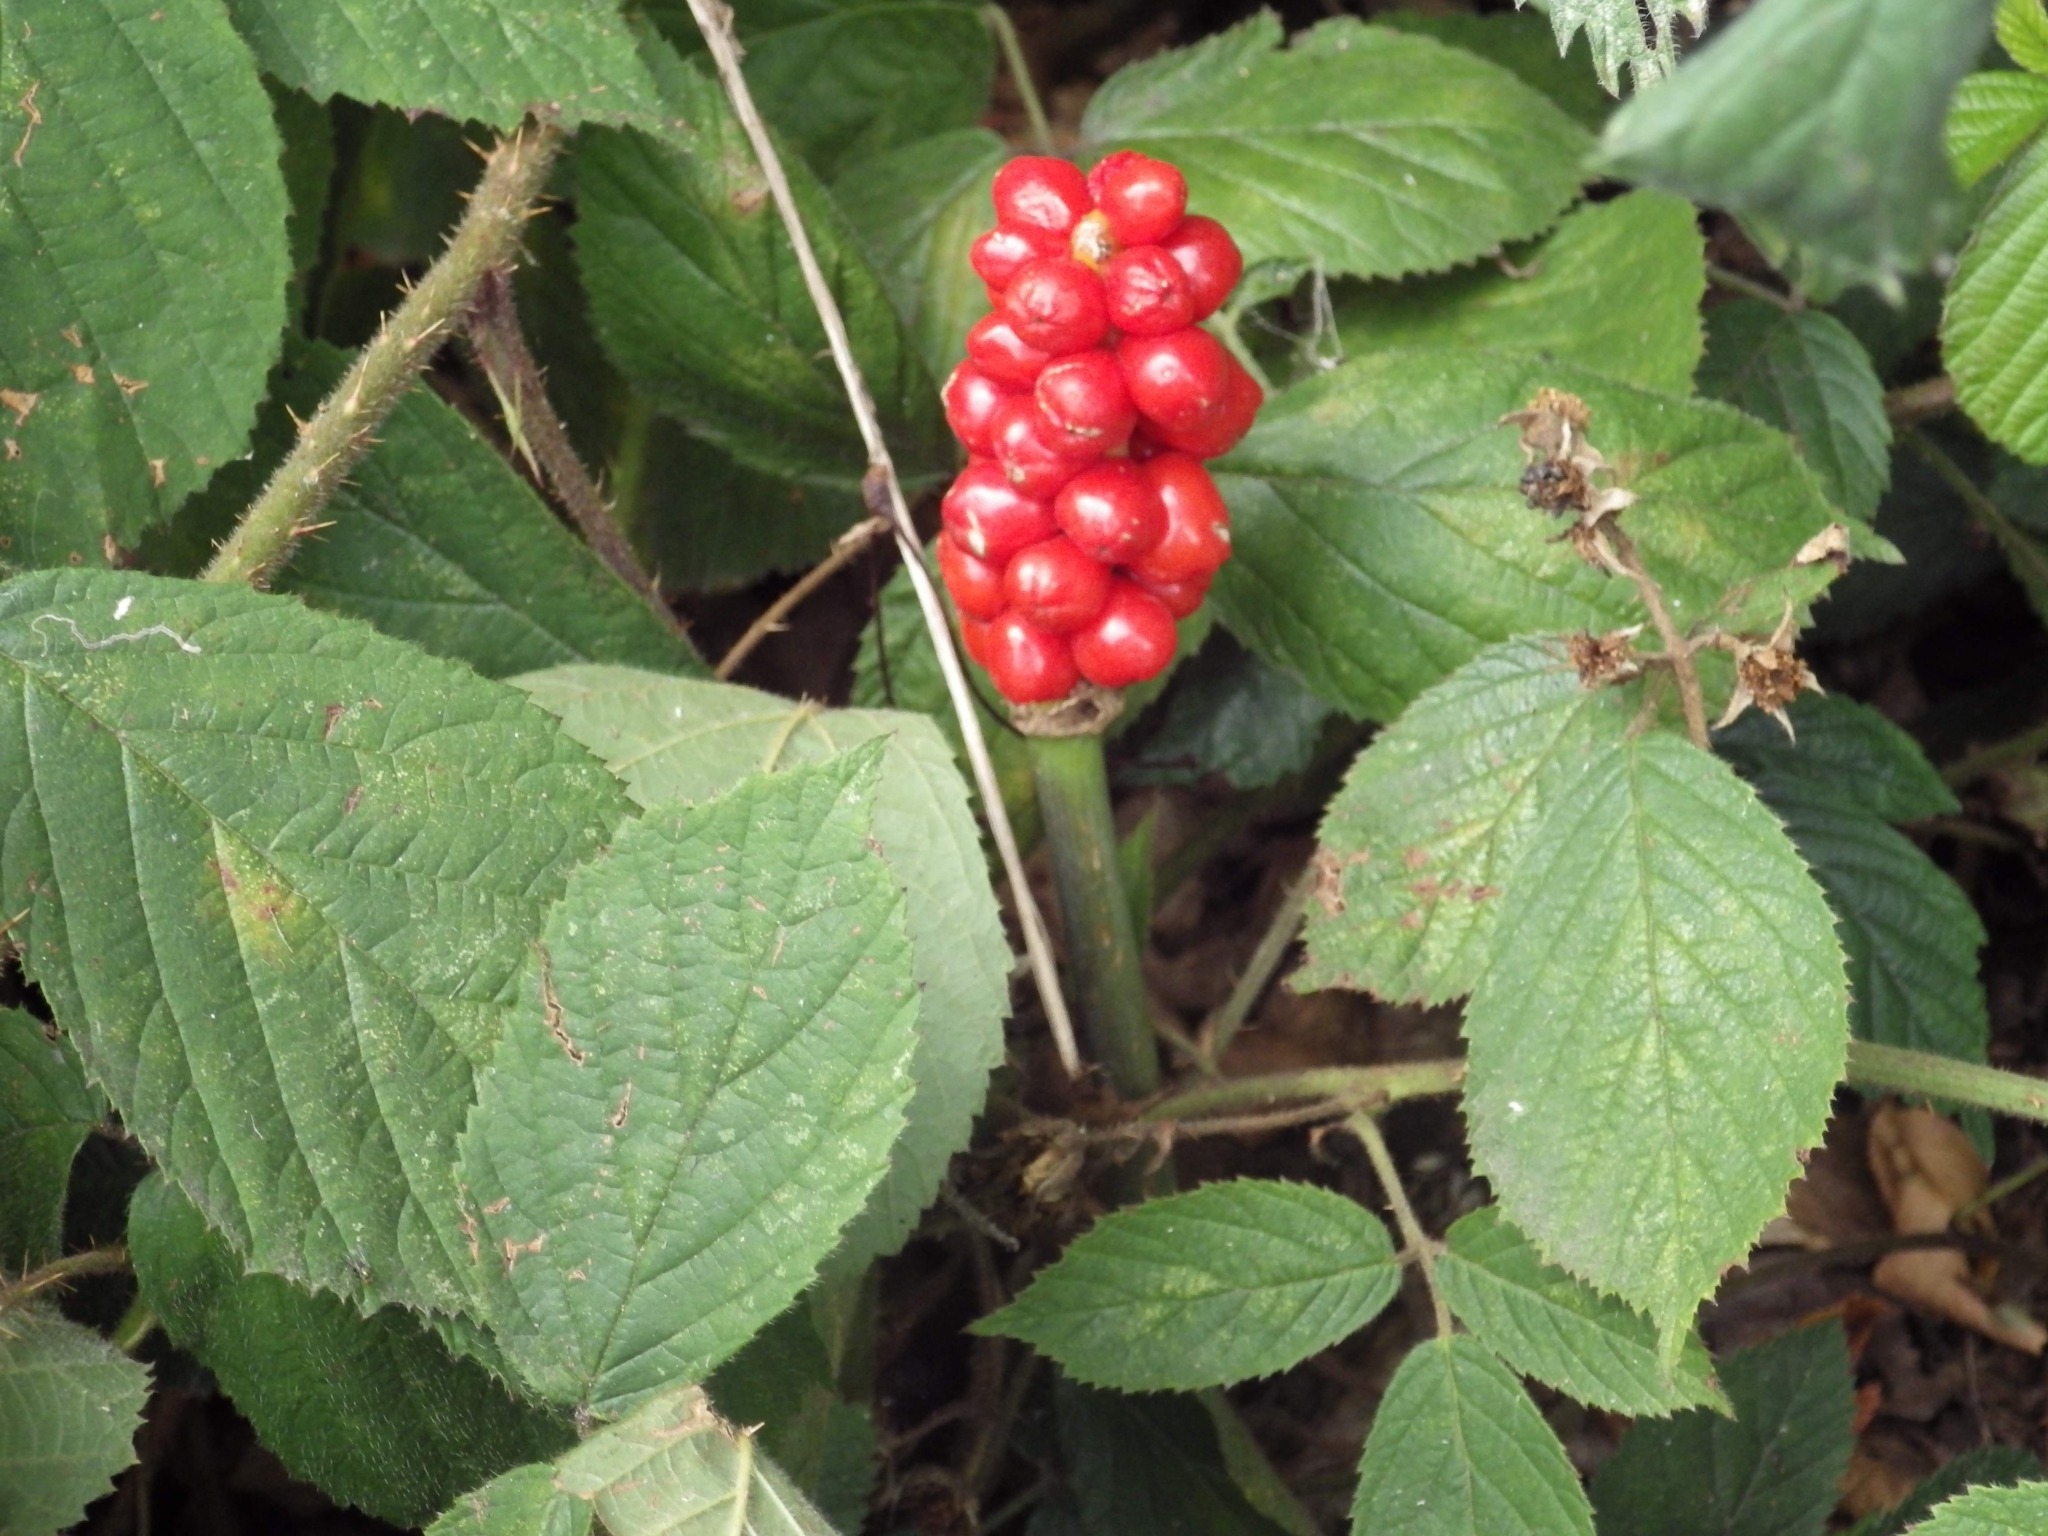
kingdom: Plantae
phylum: Tracheophyta
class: Liliopsida
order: Alismatales
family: Araceae
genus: Arum
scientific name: Arum maculatum
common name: Lords-and-ladies
